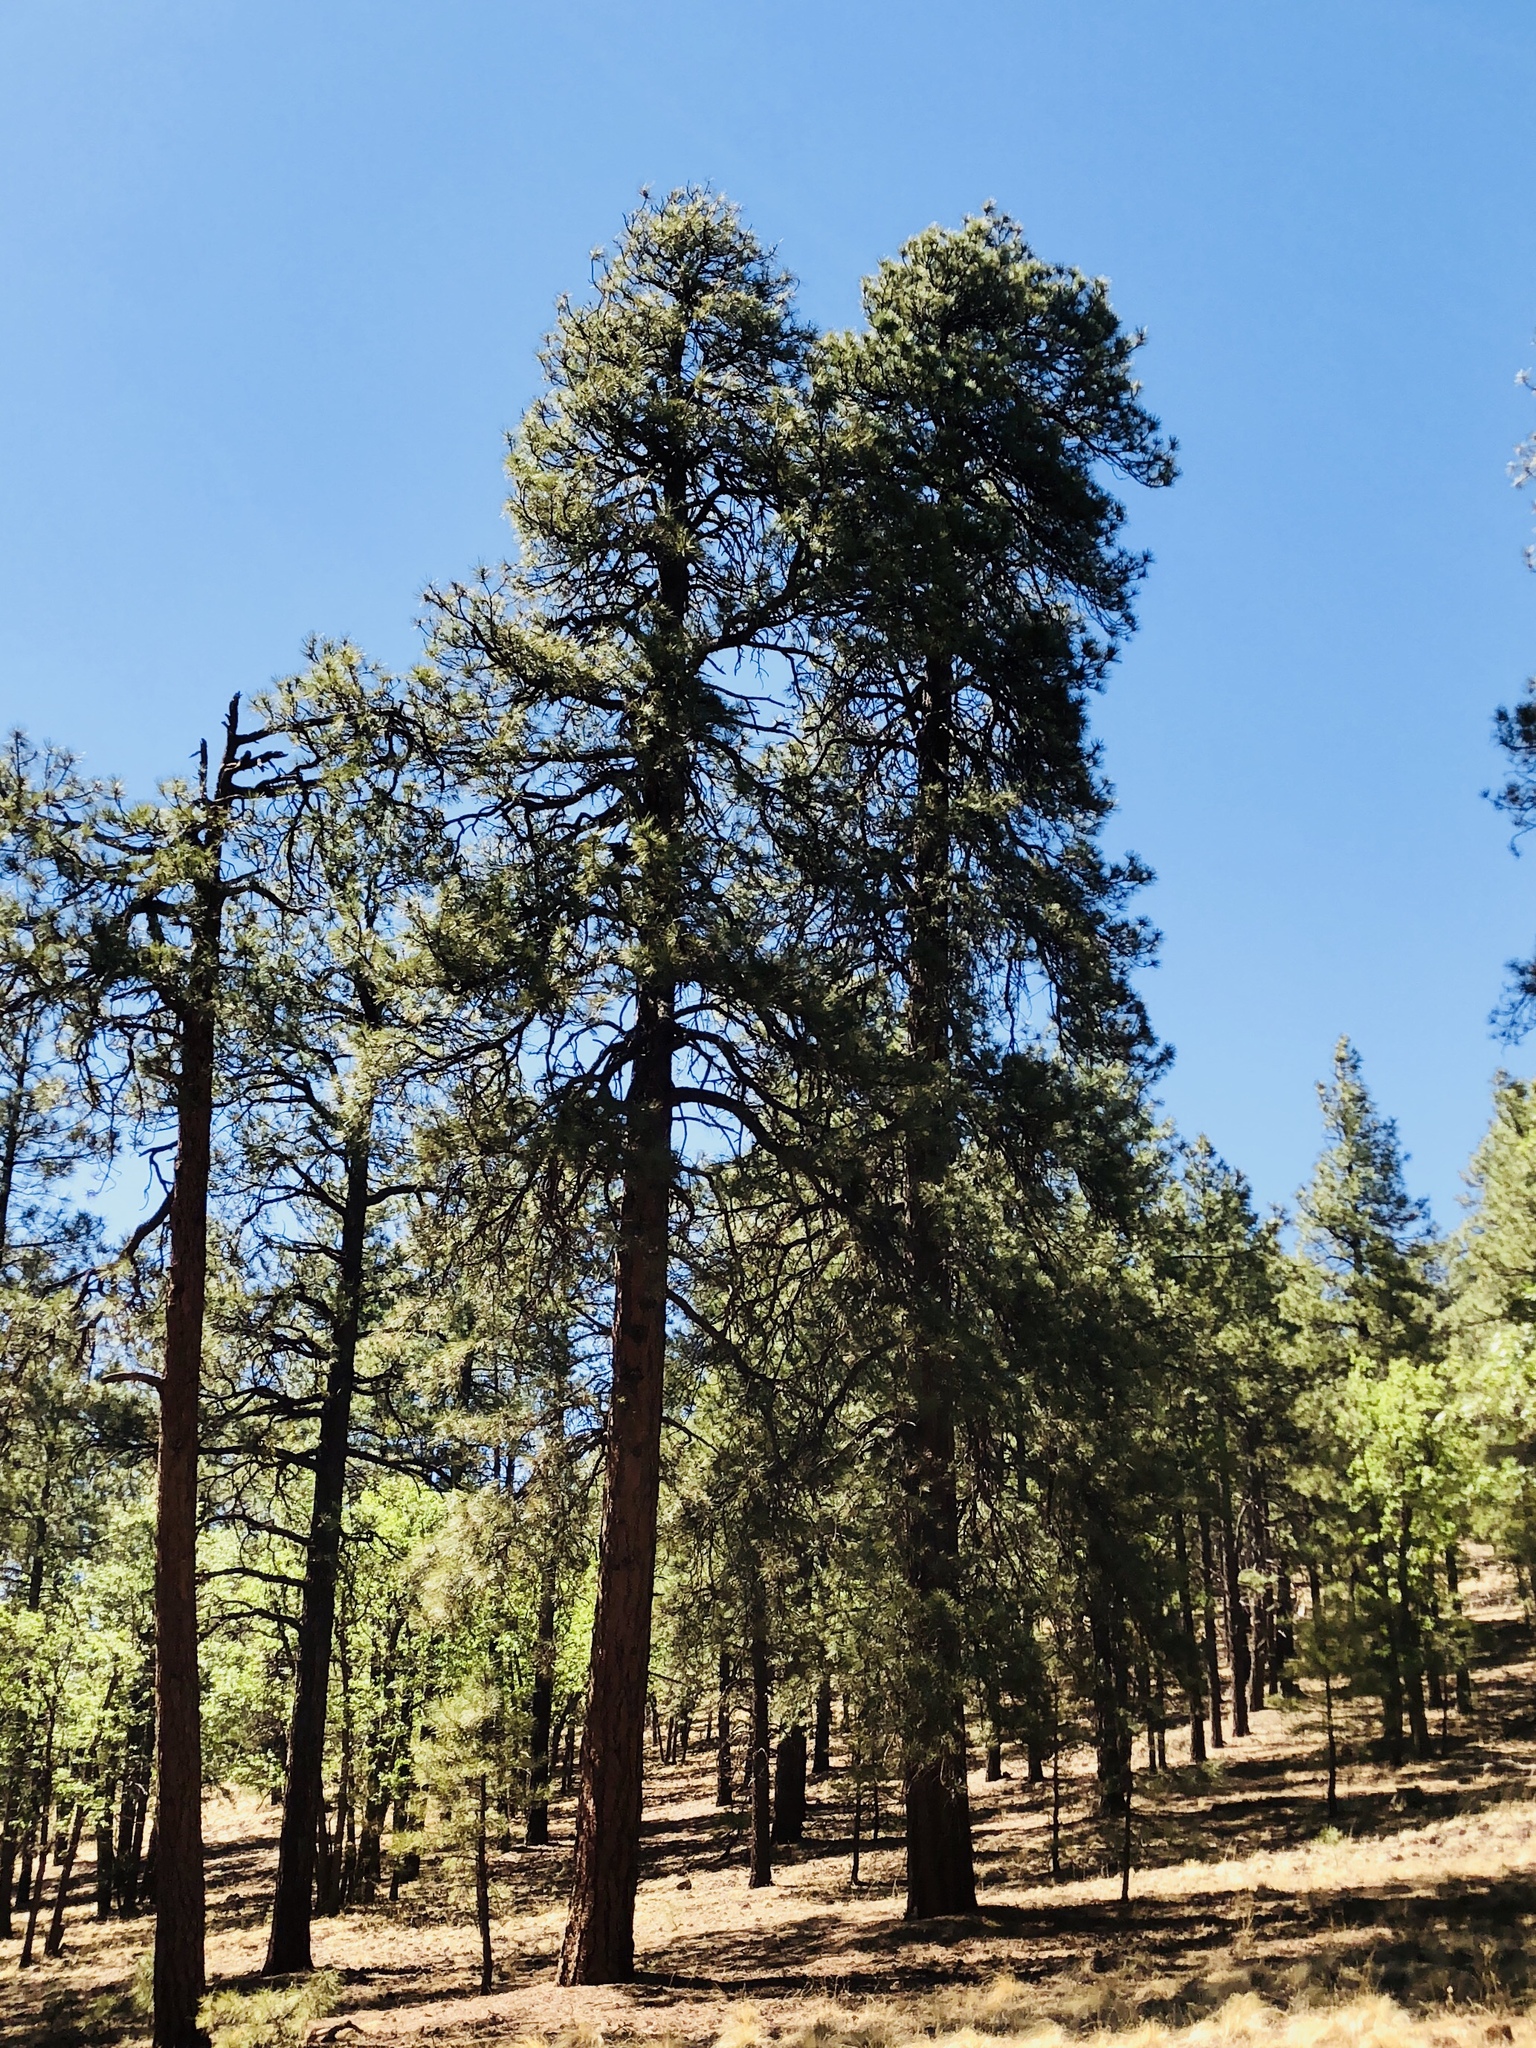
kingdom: Plantae
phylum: Tracheophyta
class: Pinopsida
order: Pinales
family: Pinaceae
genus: Pinus
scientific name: Pinus ponderosa
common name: Western yellow-pine
